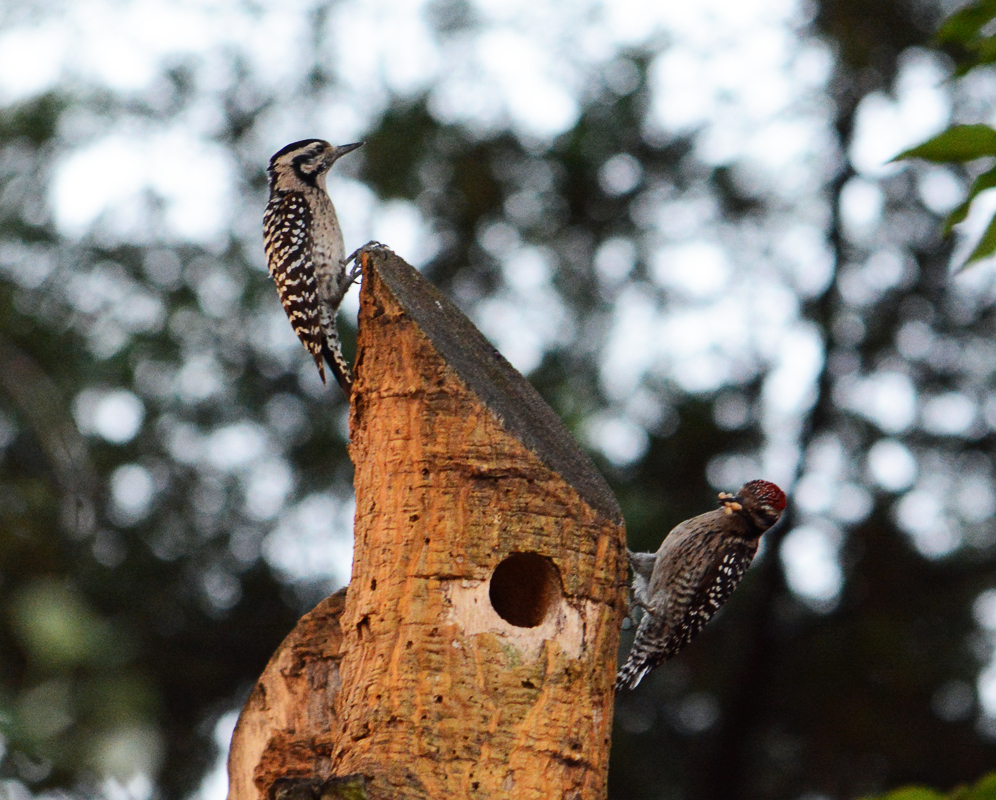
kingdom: Animalia
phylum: Chordata
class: Aves
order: Piciformes
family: Picidae
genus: Dryobates
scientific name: Dryobates scalaris
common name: Ladder-backed woodpecker
